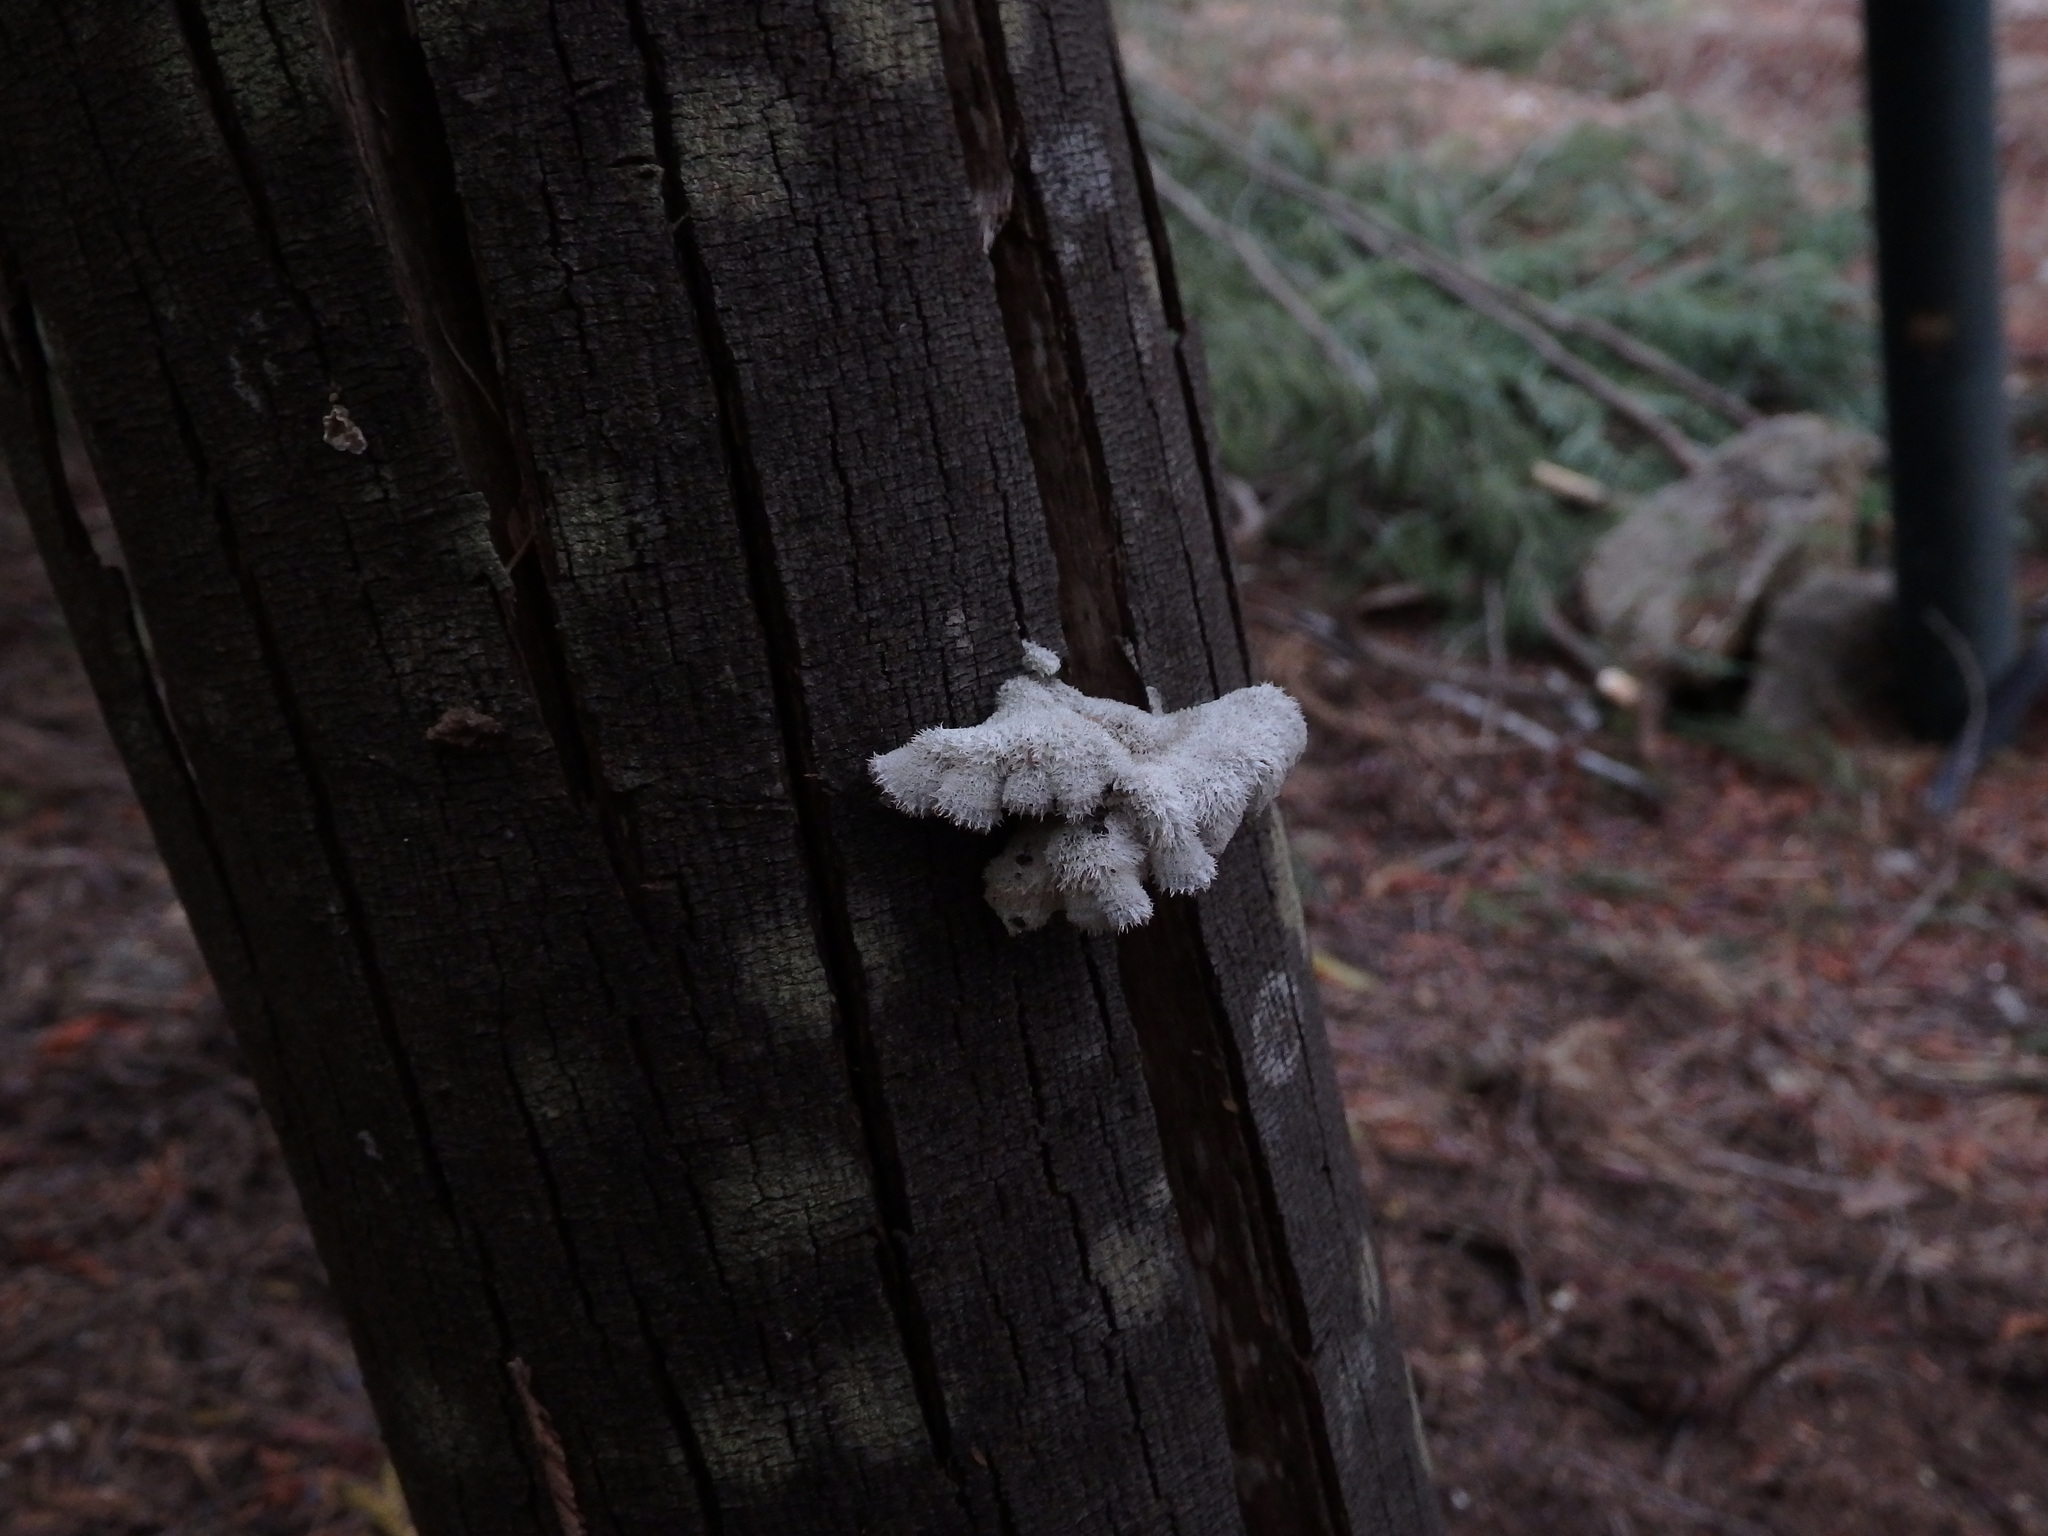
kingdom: Fungi
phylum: Basidiomycota
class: Agaricomycetes
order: Agaricales
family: Schizophyllaceae
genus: Schizophyllum
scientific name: Schizophyllum commune
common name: Common porecrust
